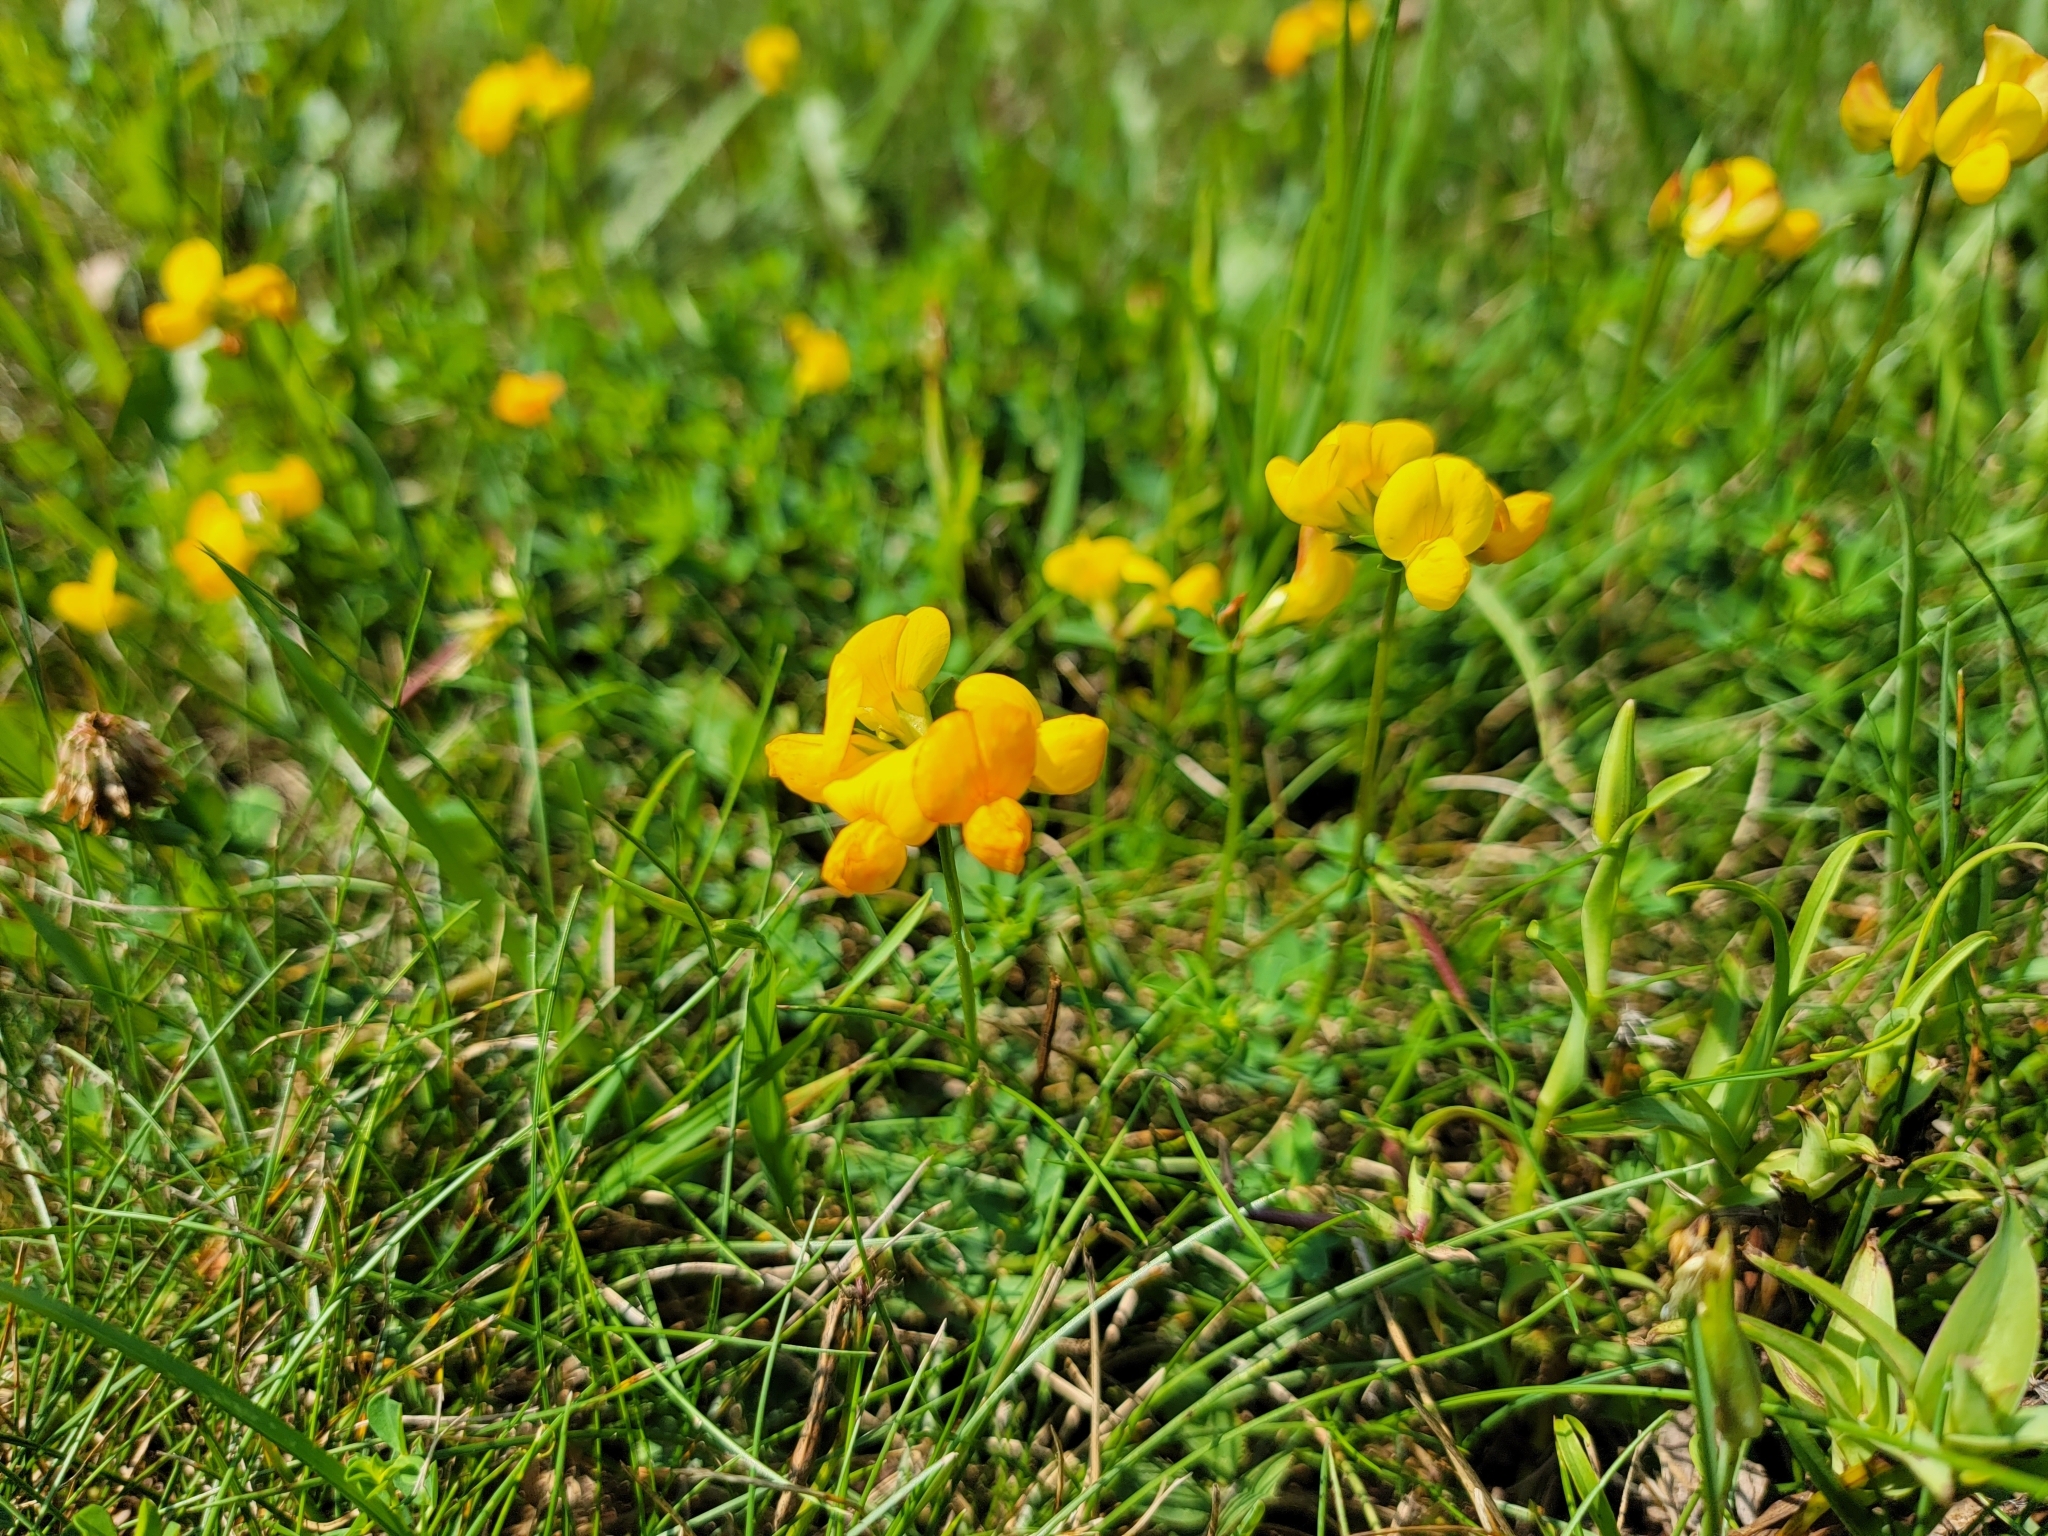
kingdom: Plantae
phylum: Tracheophyta
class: Magnoliopsida
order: Fabales
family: Fabaceae
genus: Lotus
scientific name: Lotus corniculatus
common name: Common bird's-foot-trefoil
